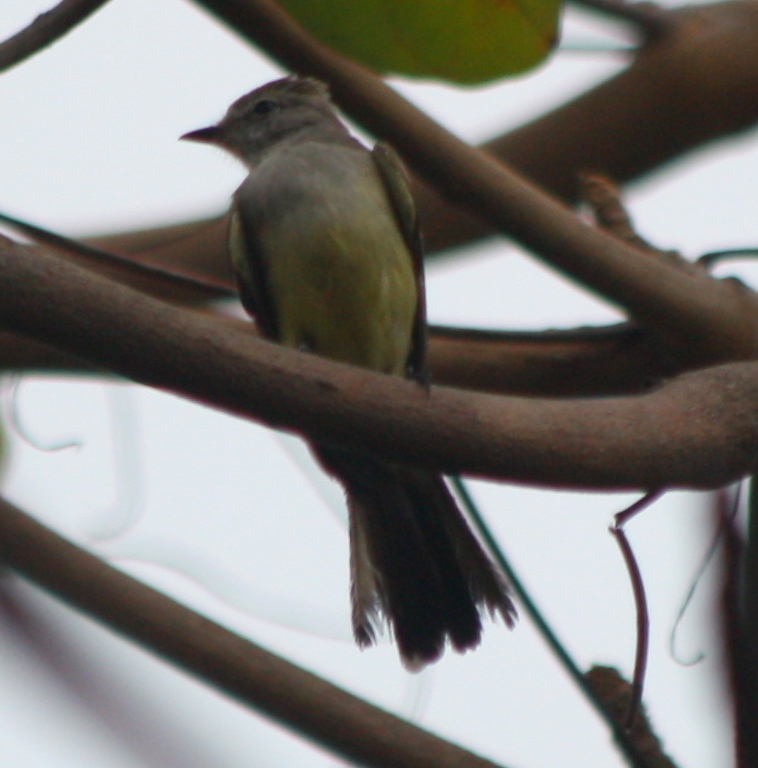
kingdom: Animalia
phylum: Chordata
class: Aves
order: Passeriformes
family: Tyrannidae
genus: Elaenia
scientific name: Elaenia flavogaster
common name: Yellow-bellied elaenia
